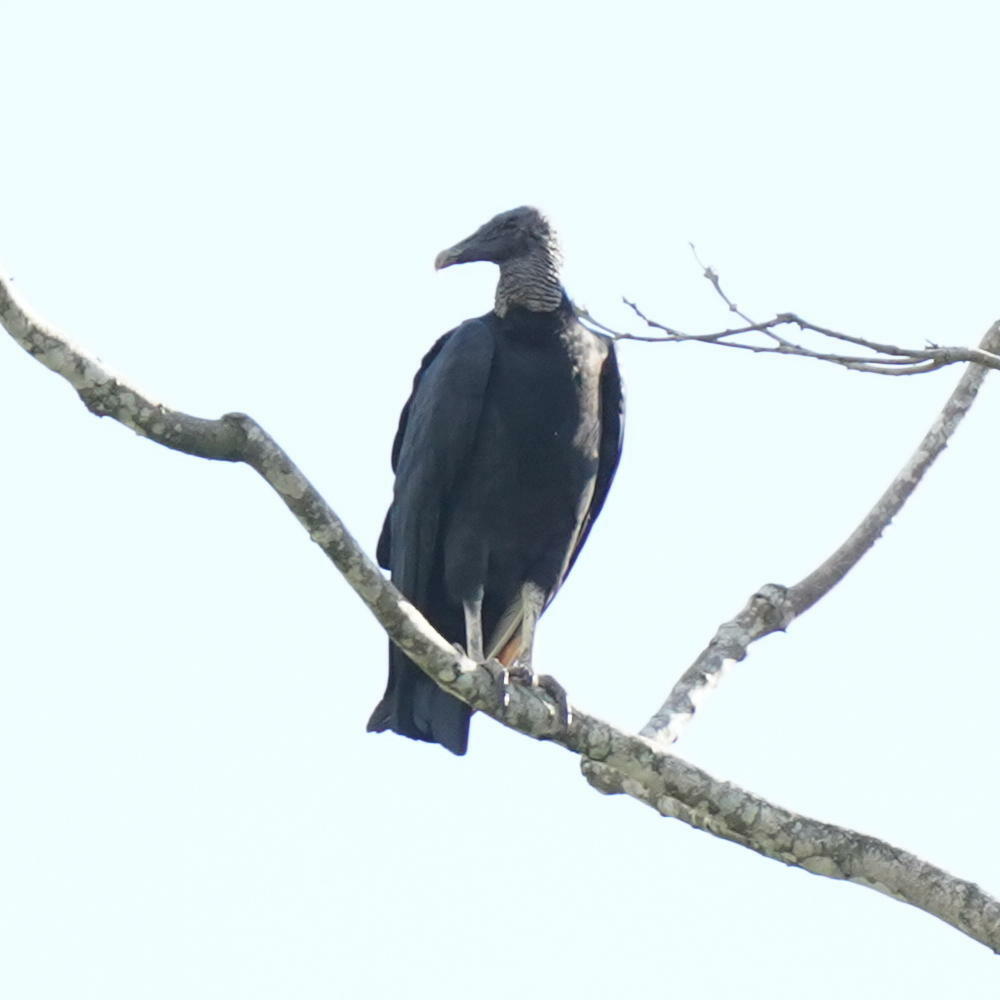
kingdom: Animalia
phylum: Chordata
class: Aves
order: Accipitriformes
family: Cathartidae
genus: Coragyps
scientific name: Coragyps atratus
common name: Black vulture
